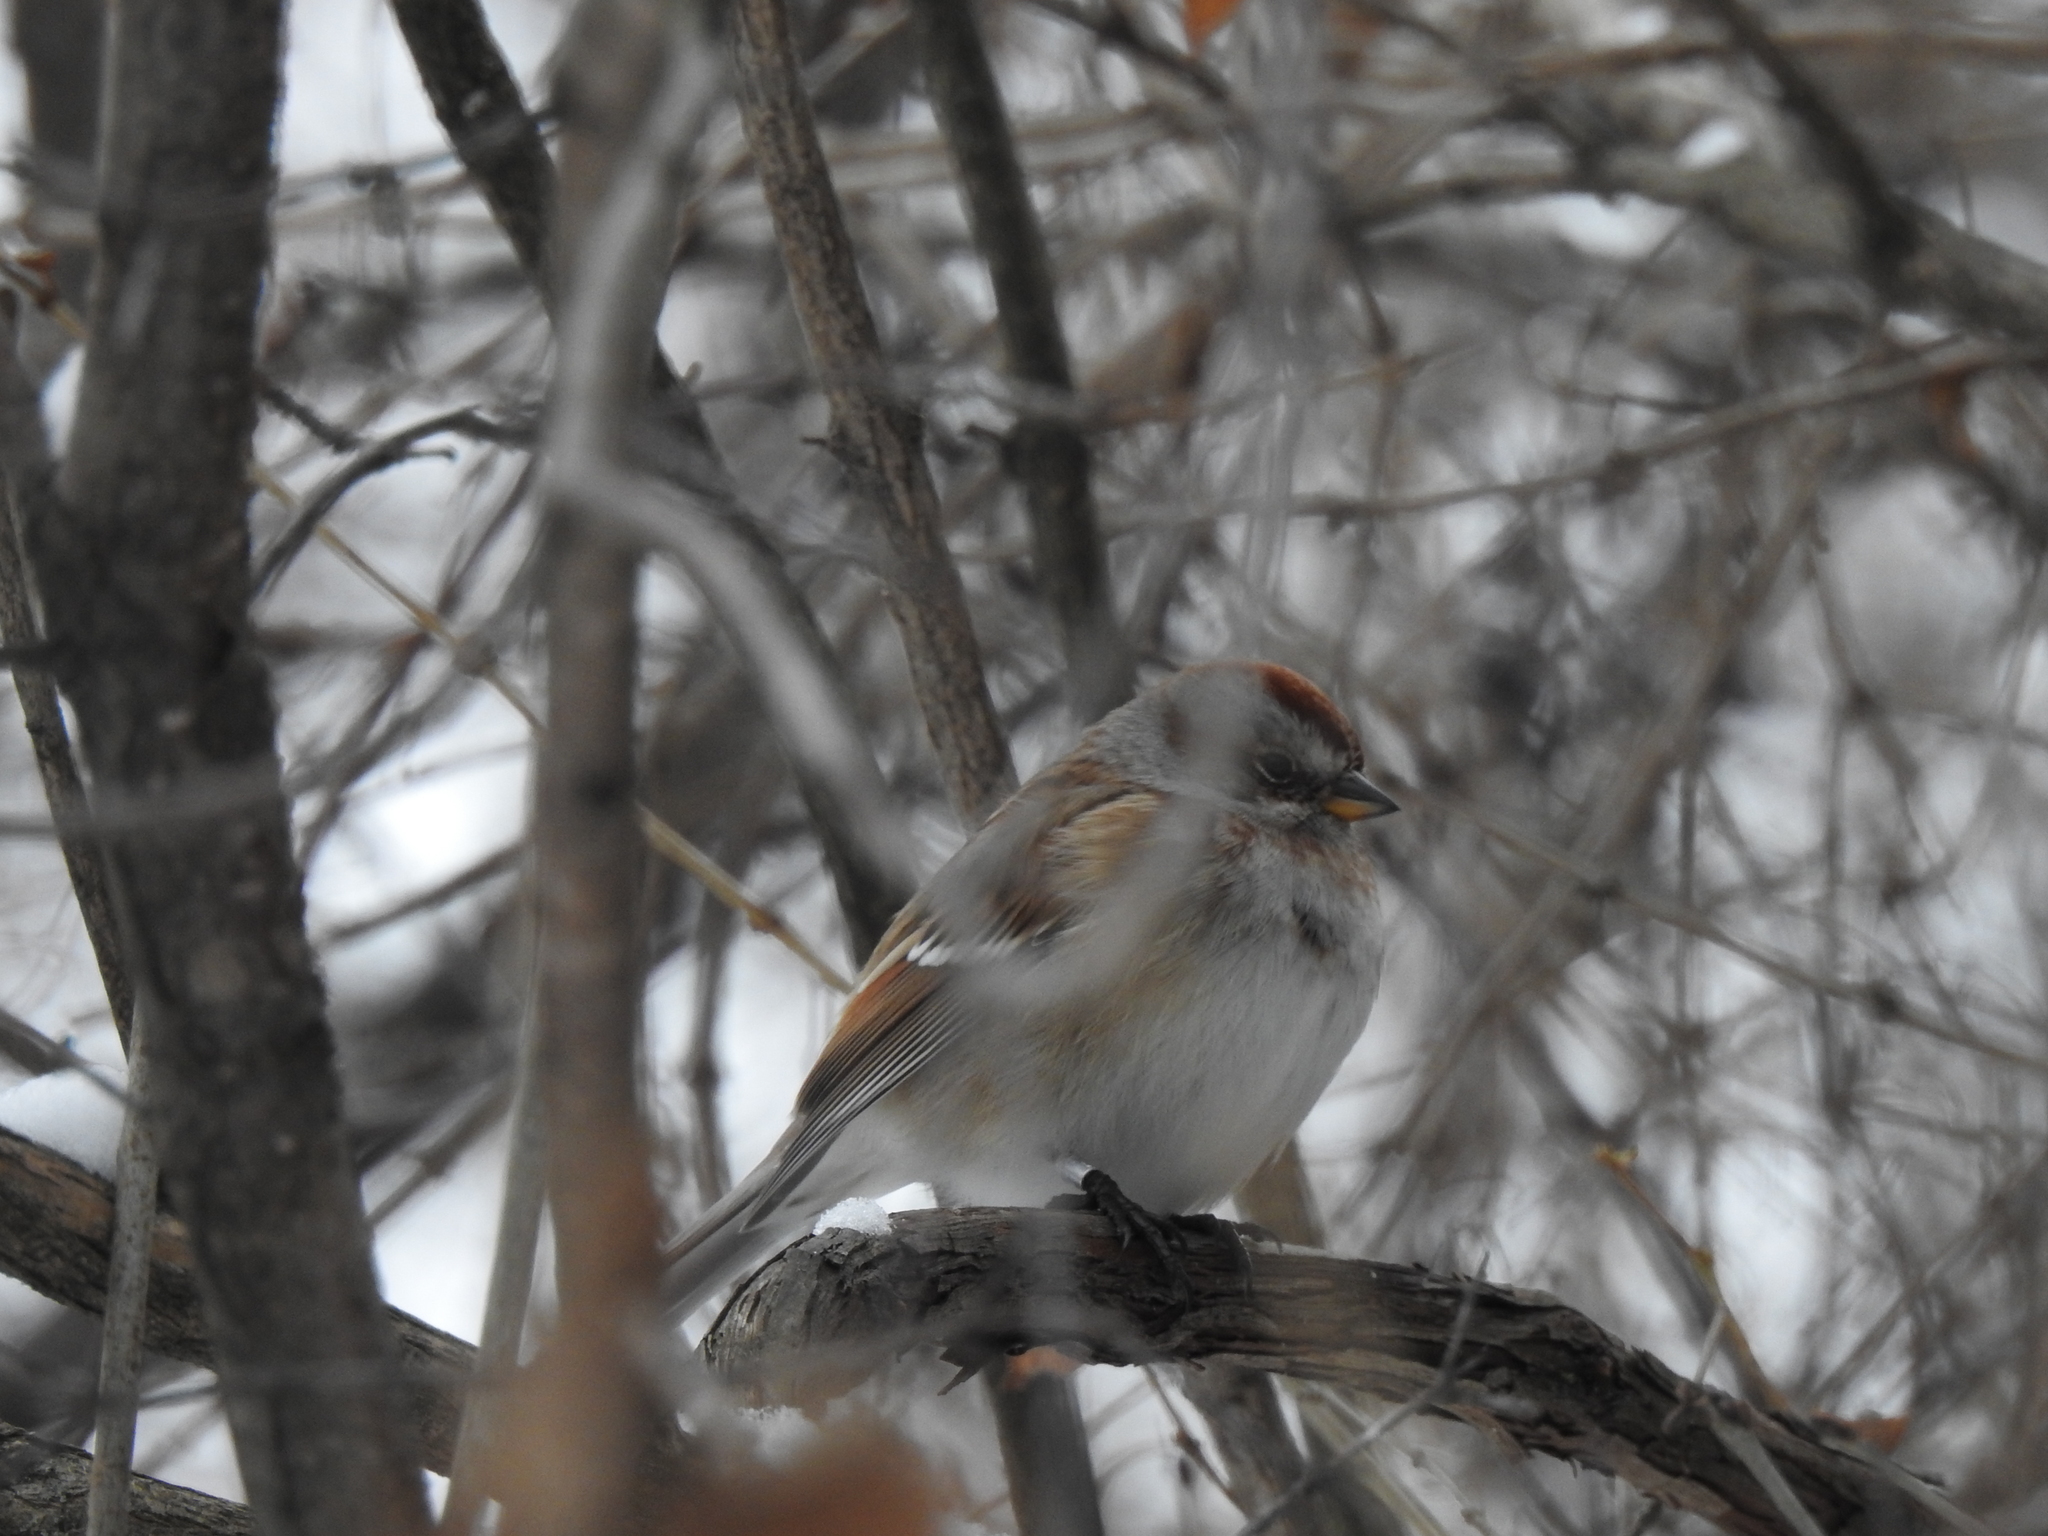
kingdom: Animalia
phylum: Chordata
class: Aves
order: Passeriformes
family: Passerellidae
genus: Spizelloides
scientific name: Spizelloides arborea
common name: American tree sparrow
